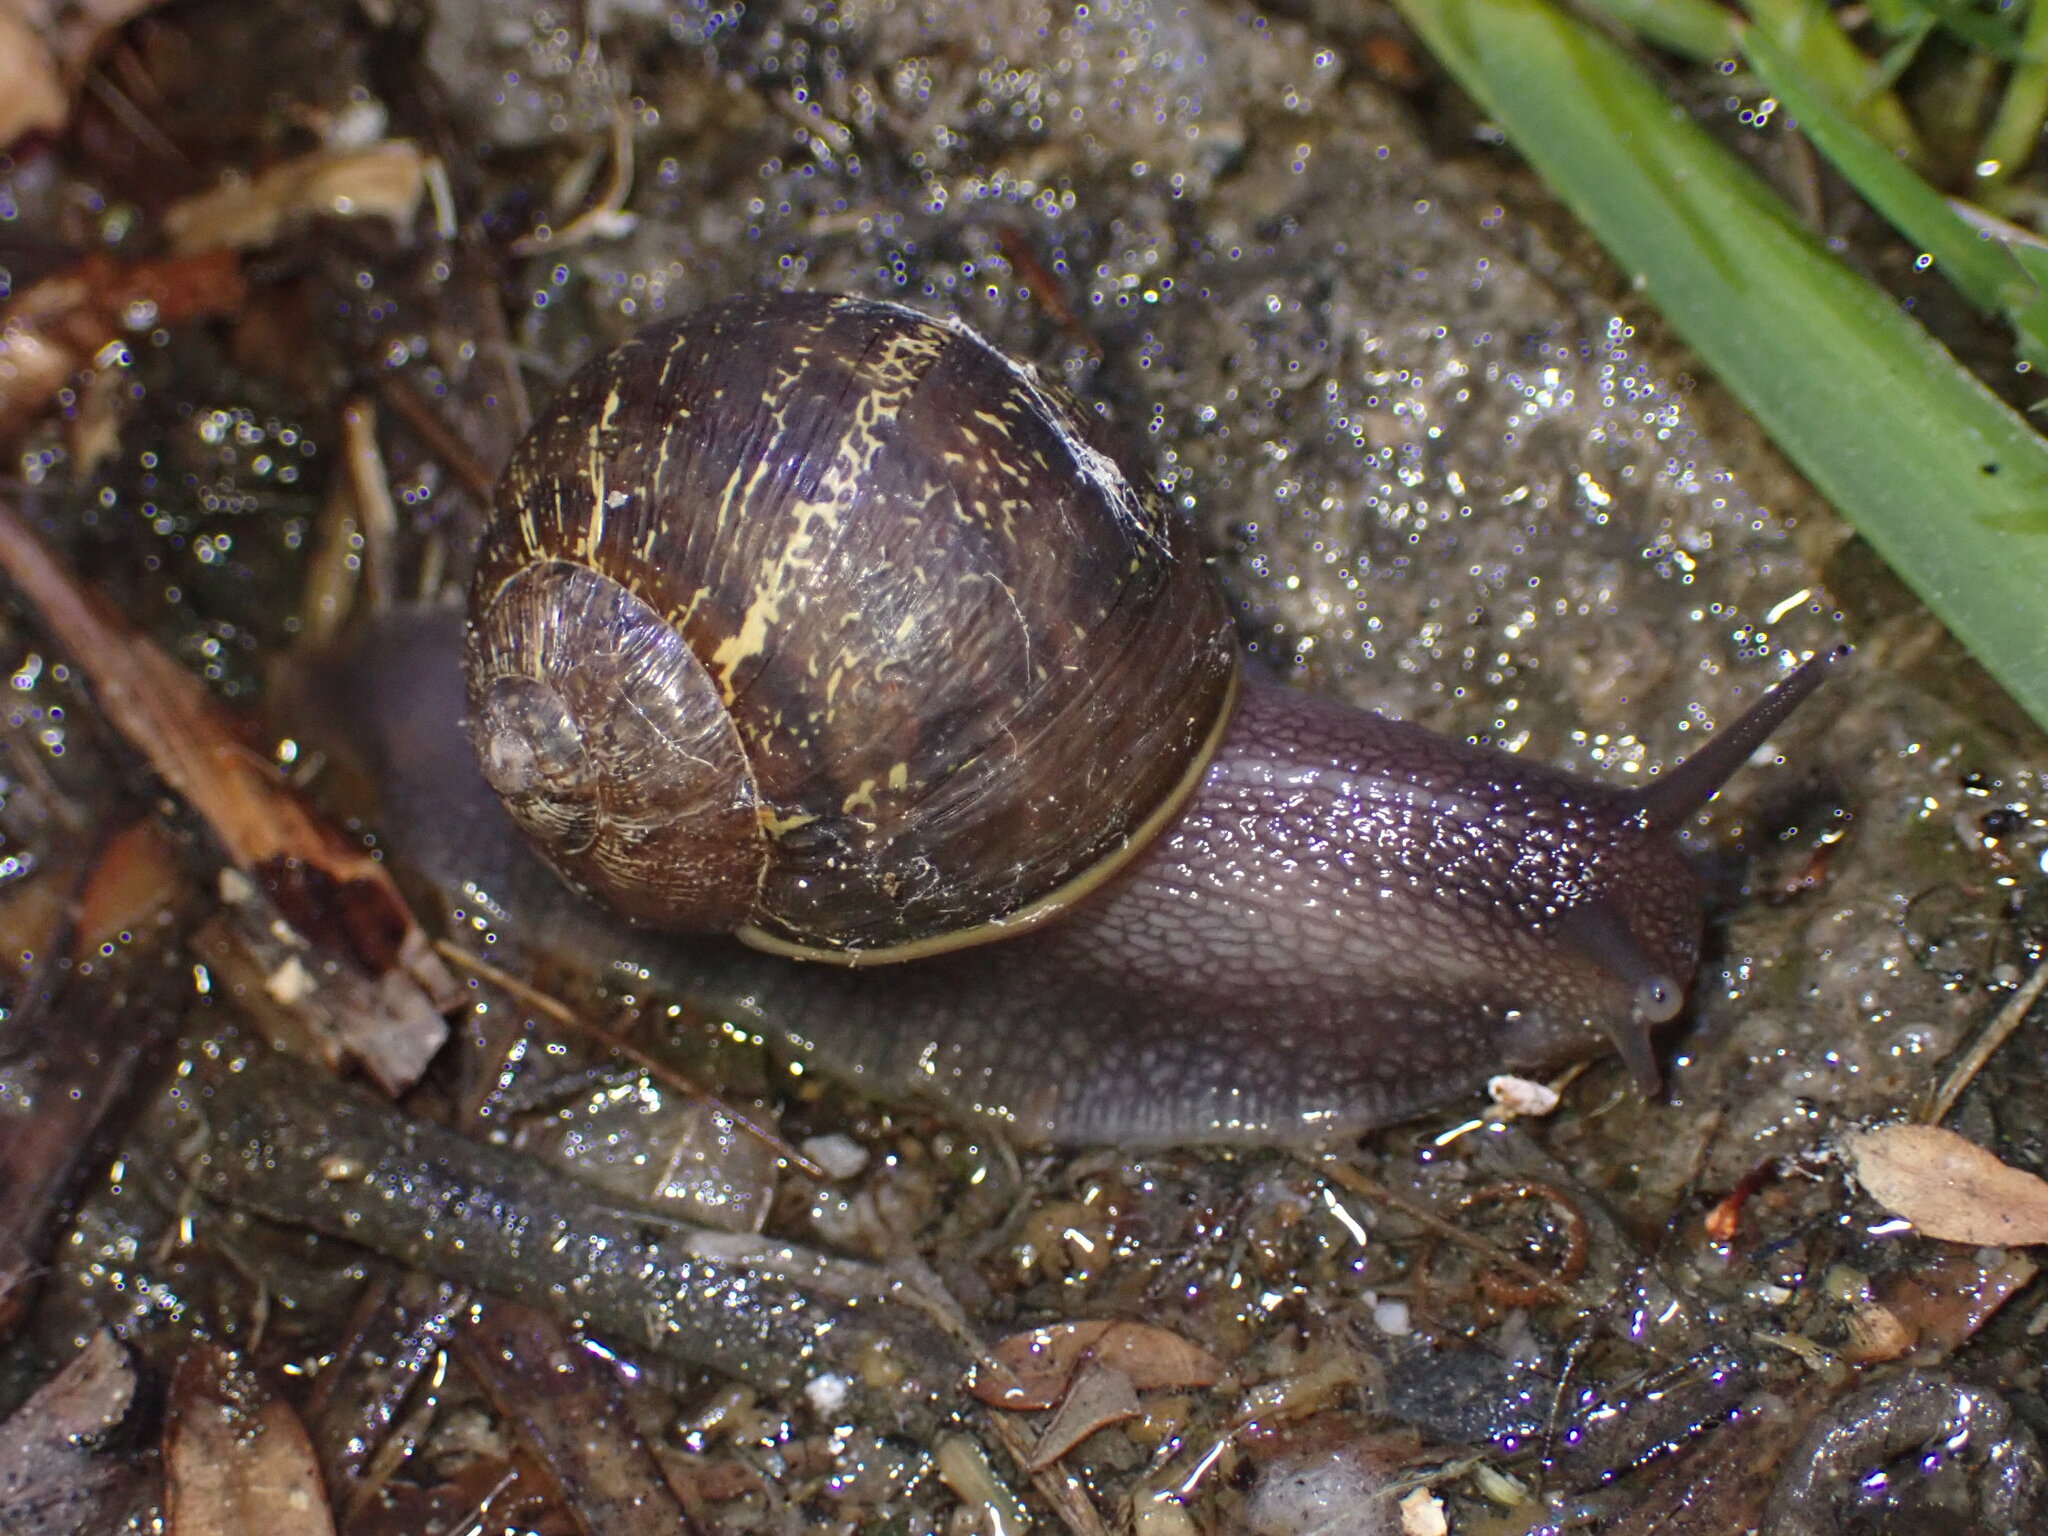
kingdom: Animalia
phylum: Mollusca
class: Gastropoda
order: Stylommatophora
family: Helicidae
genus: Cornu
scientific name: Cornu aspersum
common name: Brown garden snail
